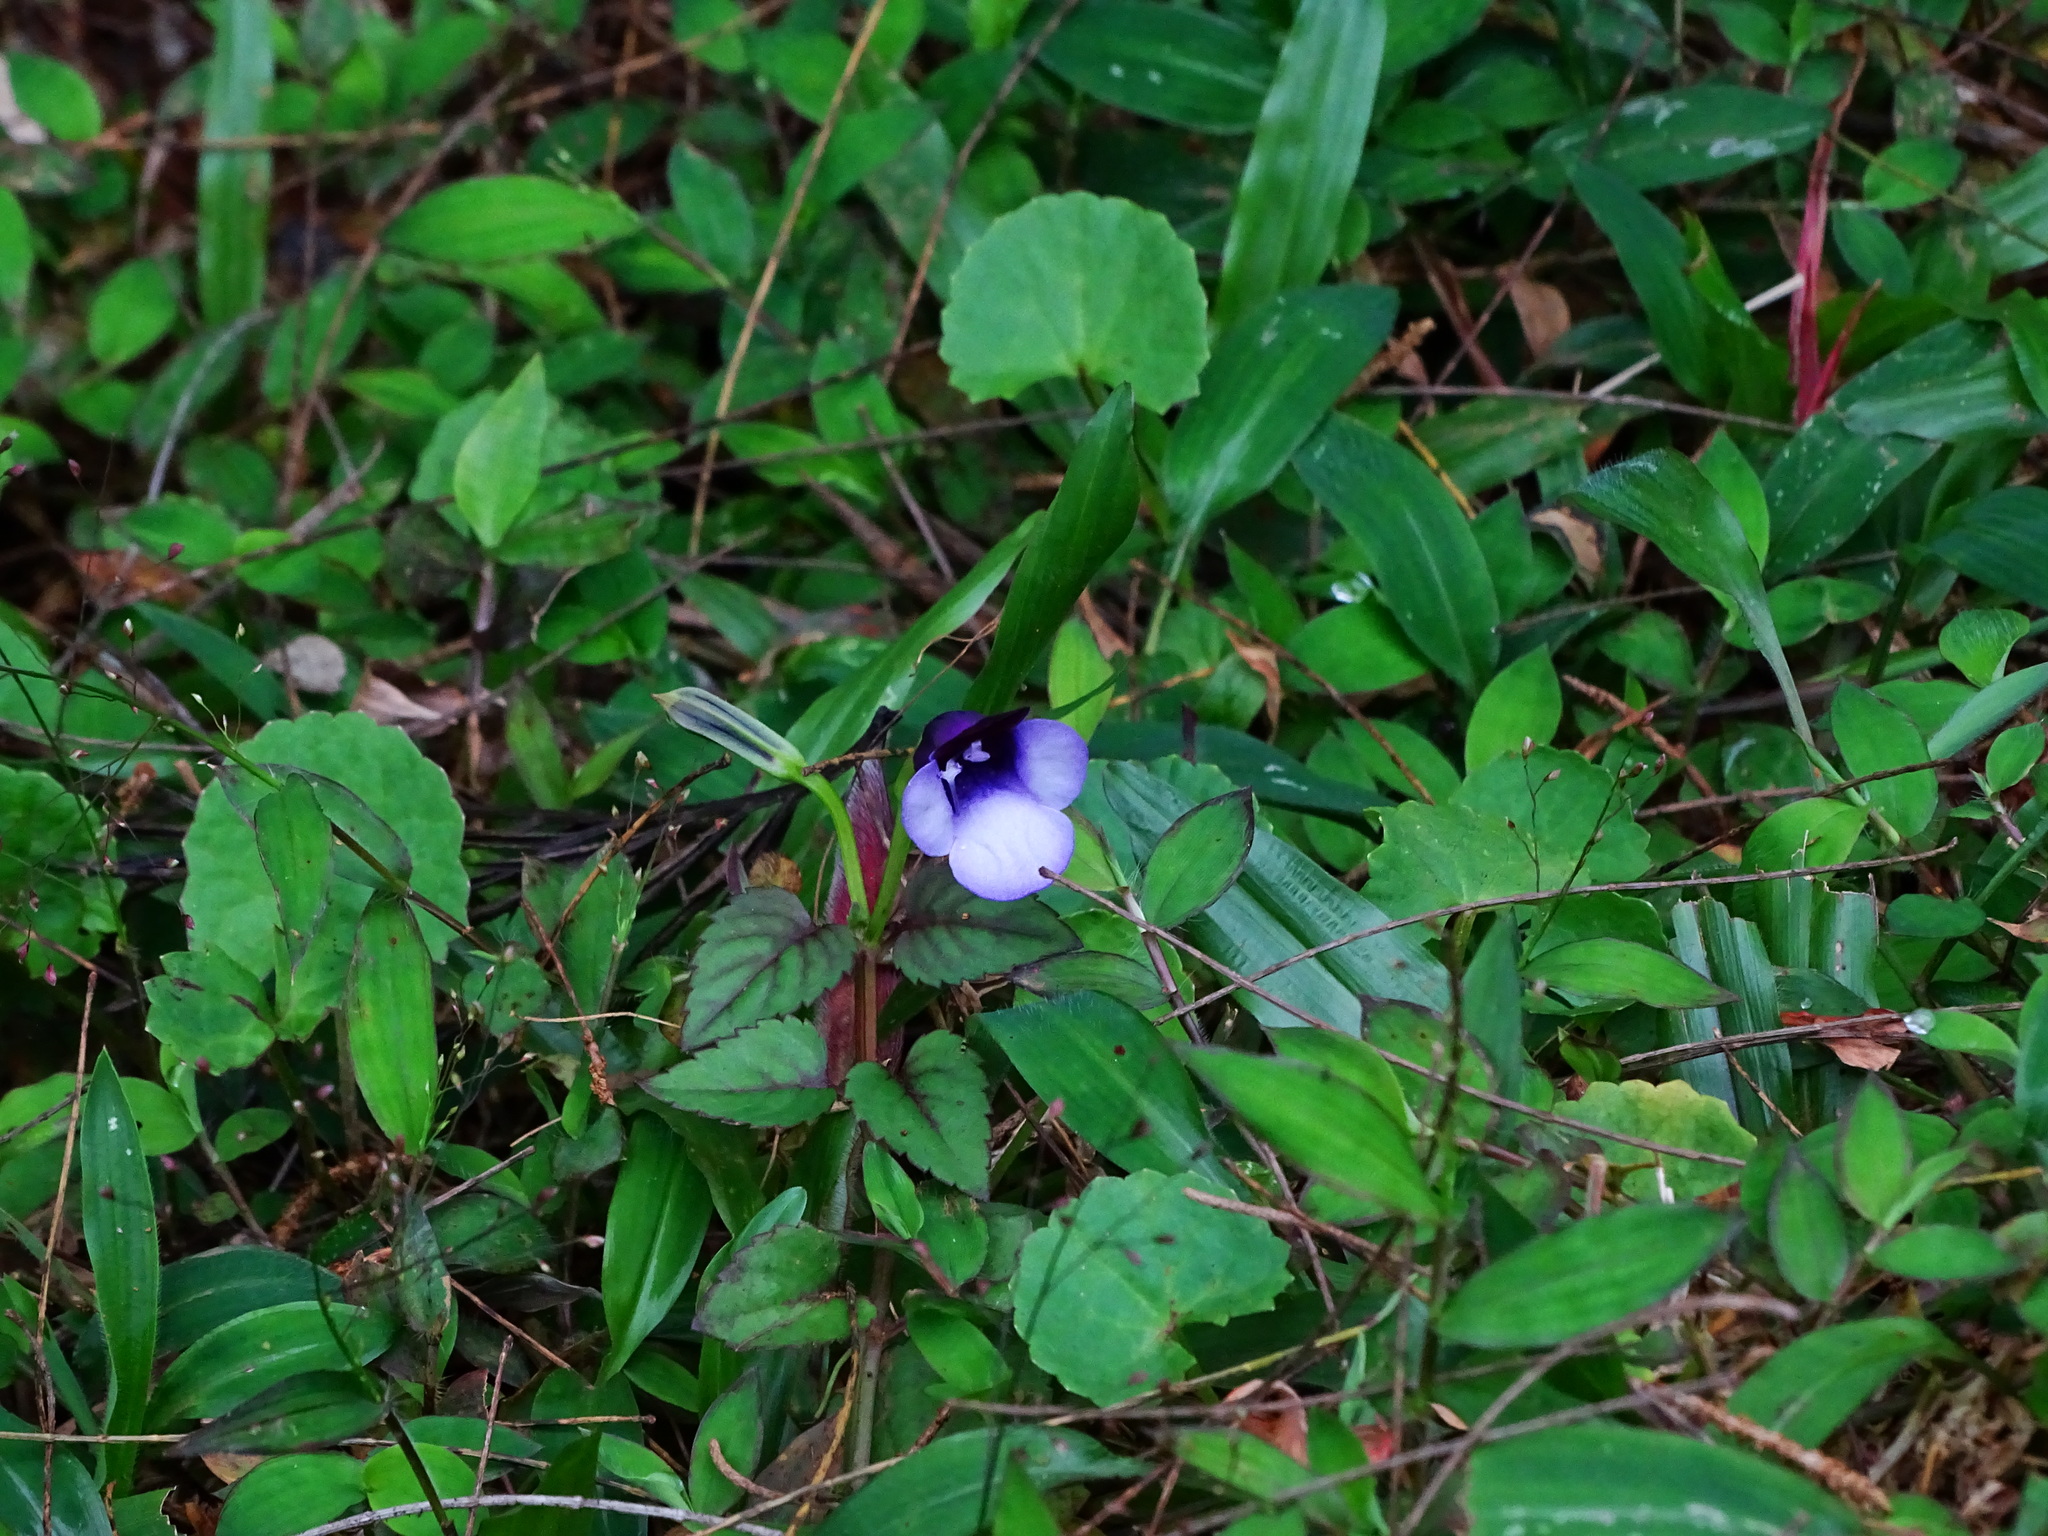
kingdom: Plantae
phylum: Tracheophyta
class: Magnoliopsida
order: Lamiales
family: Linderniaceae
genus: Torenia
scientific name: Torenia bicolor
